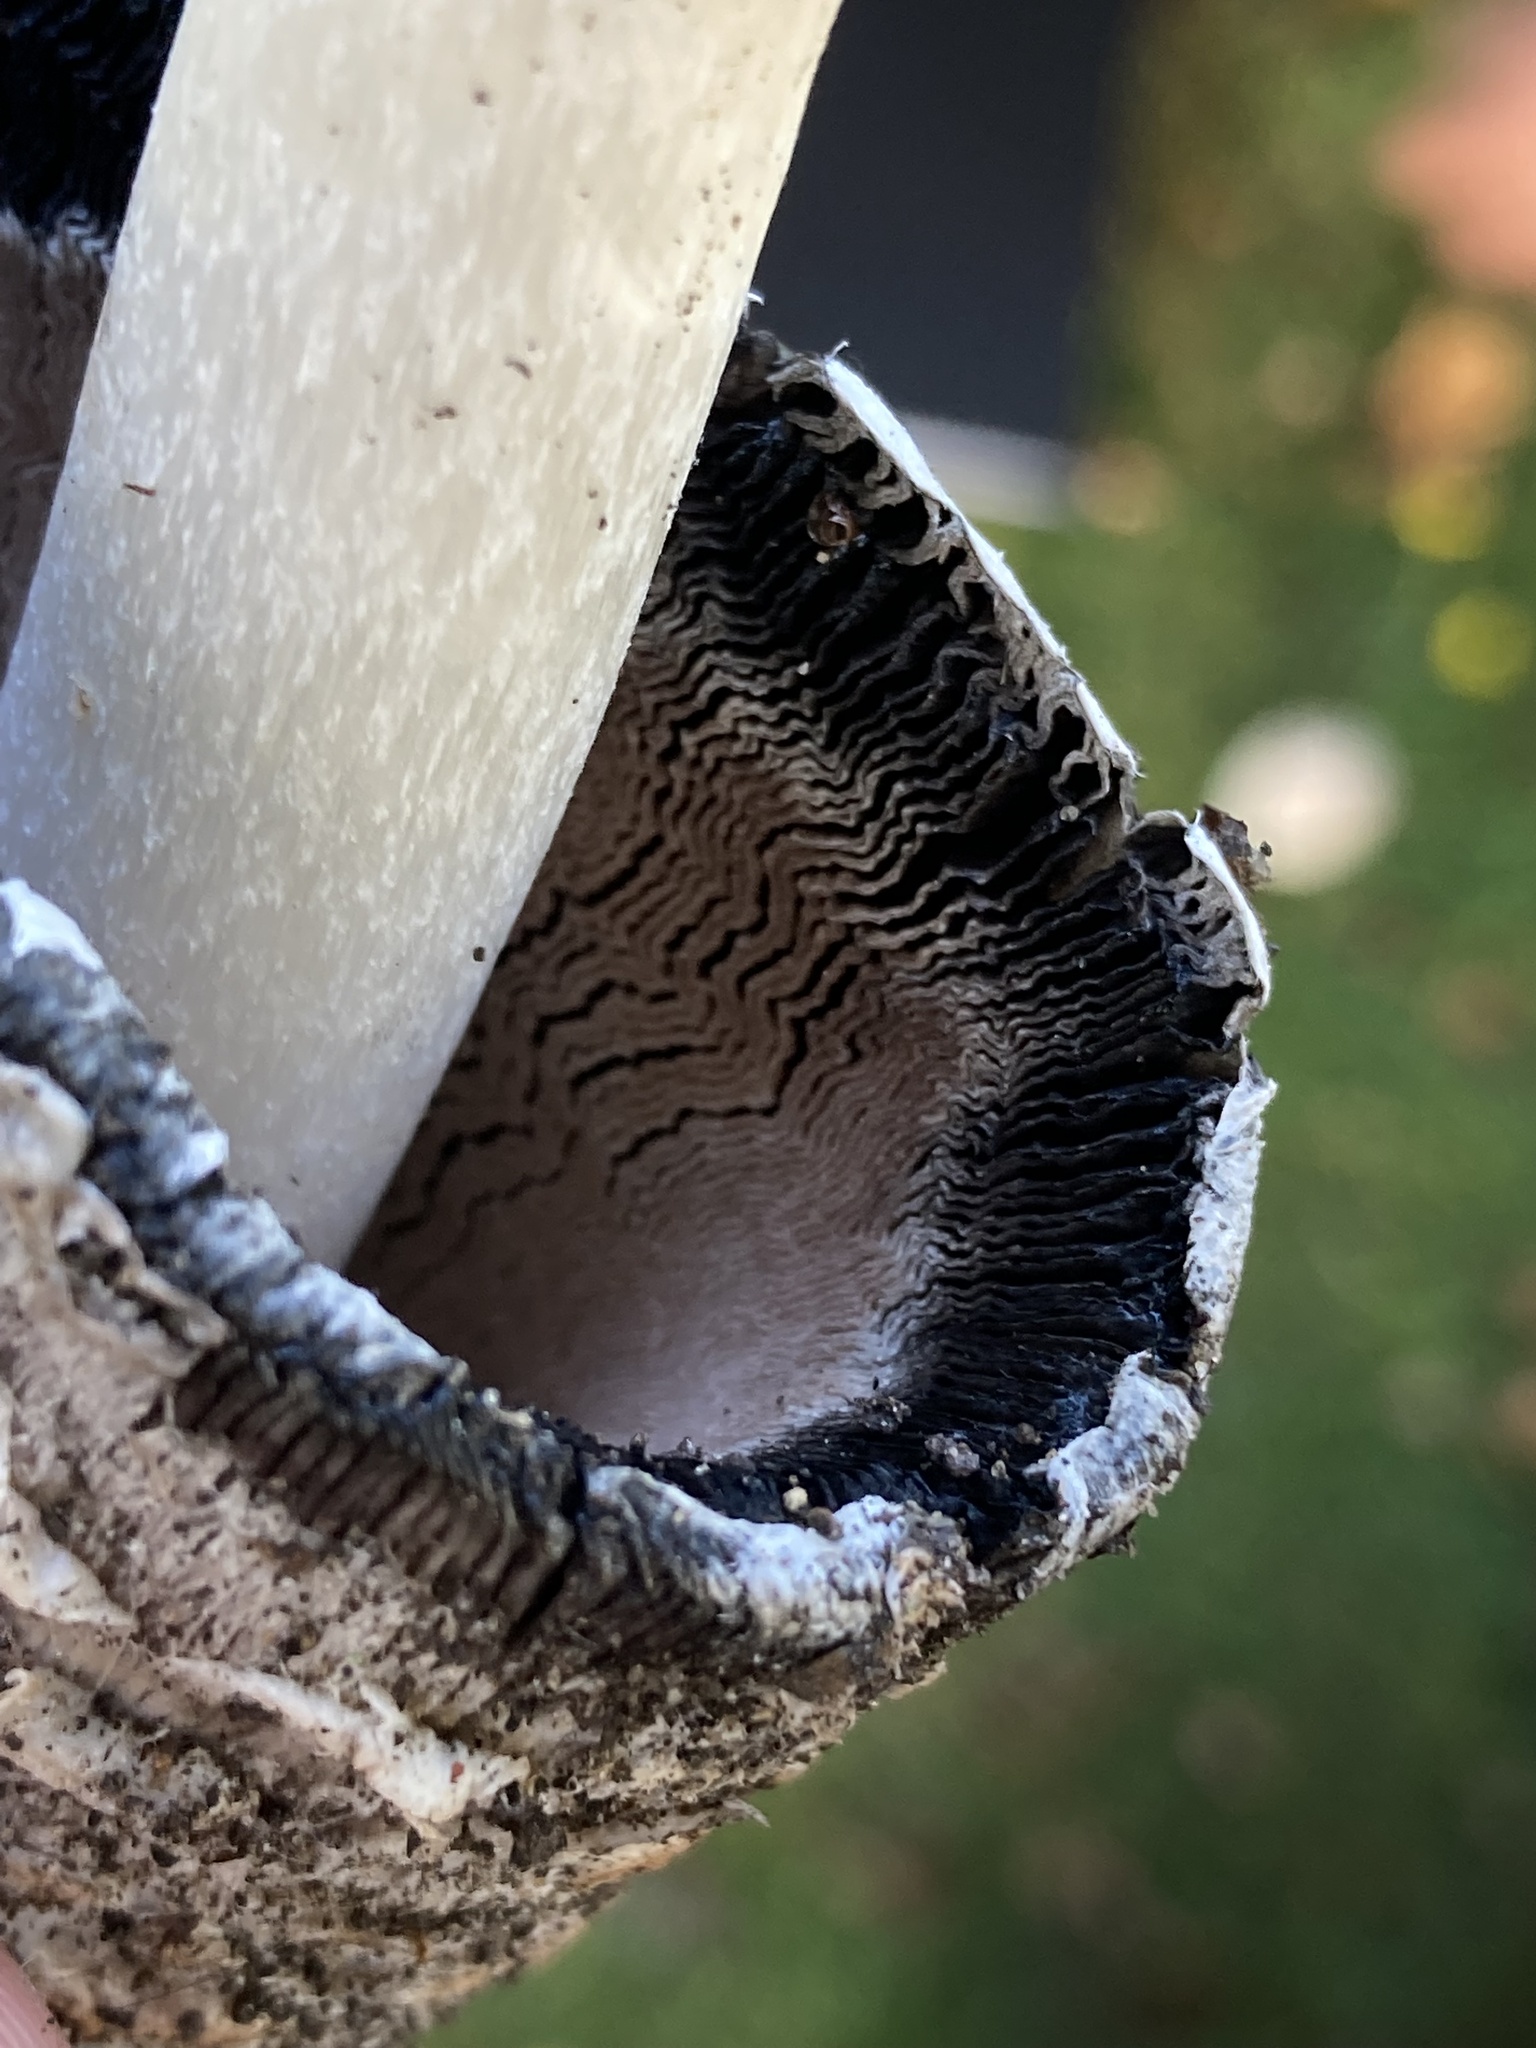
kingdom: Fungi
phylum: Basidiomycota
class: Agaricomycetes
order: Agaricales
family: Agaricaceae
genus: Coprinus
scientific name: Coprinus comatus
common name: Lawyer's wig
